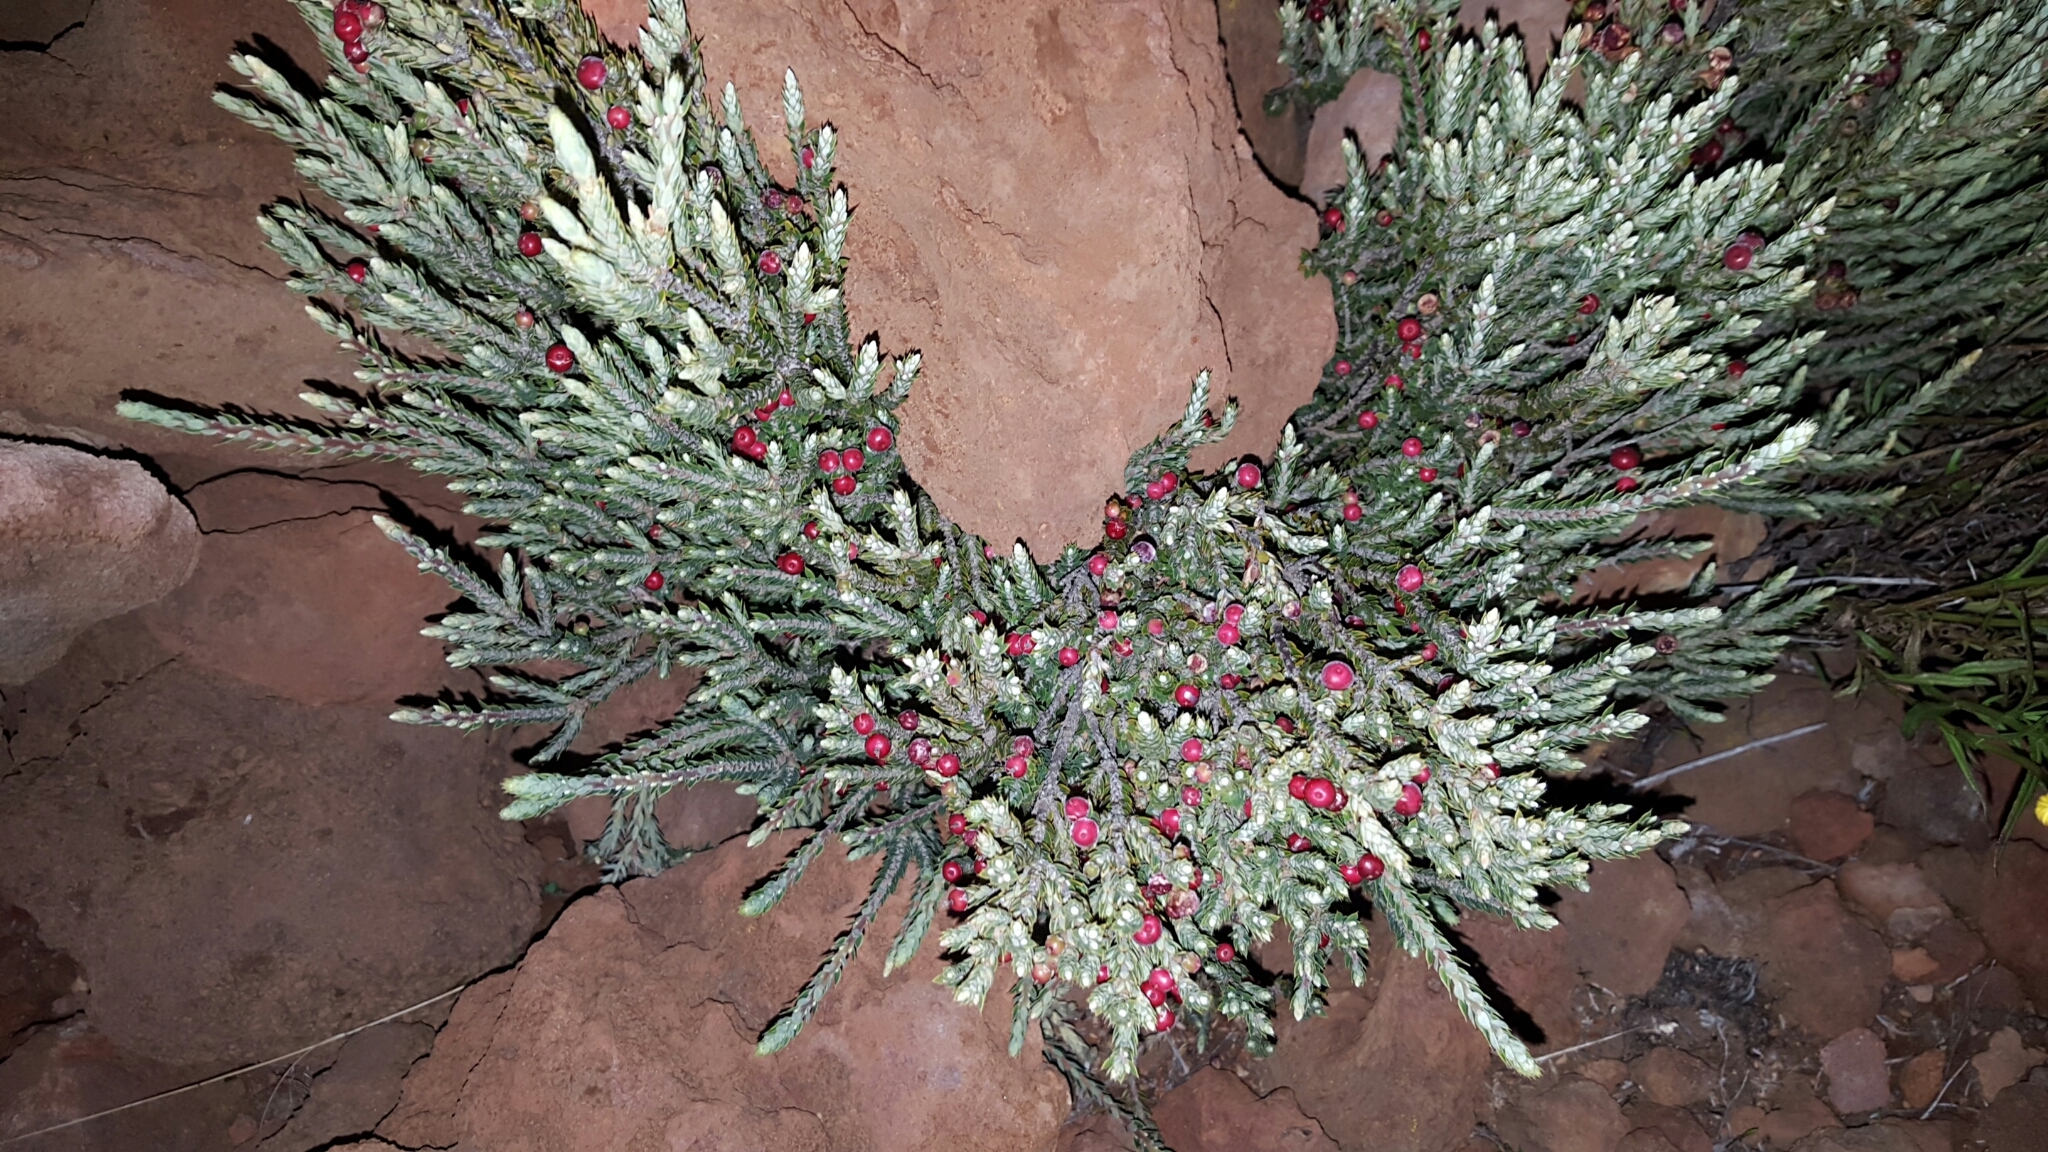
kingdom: Plantae
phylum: Tracheophyta
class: Magnoliopsida
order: Ericales
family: Ericaceae
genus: Leptecophylla
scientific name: Leptecophylla tameiameiae
